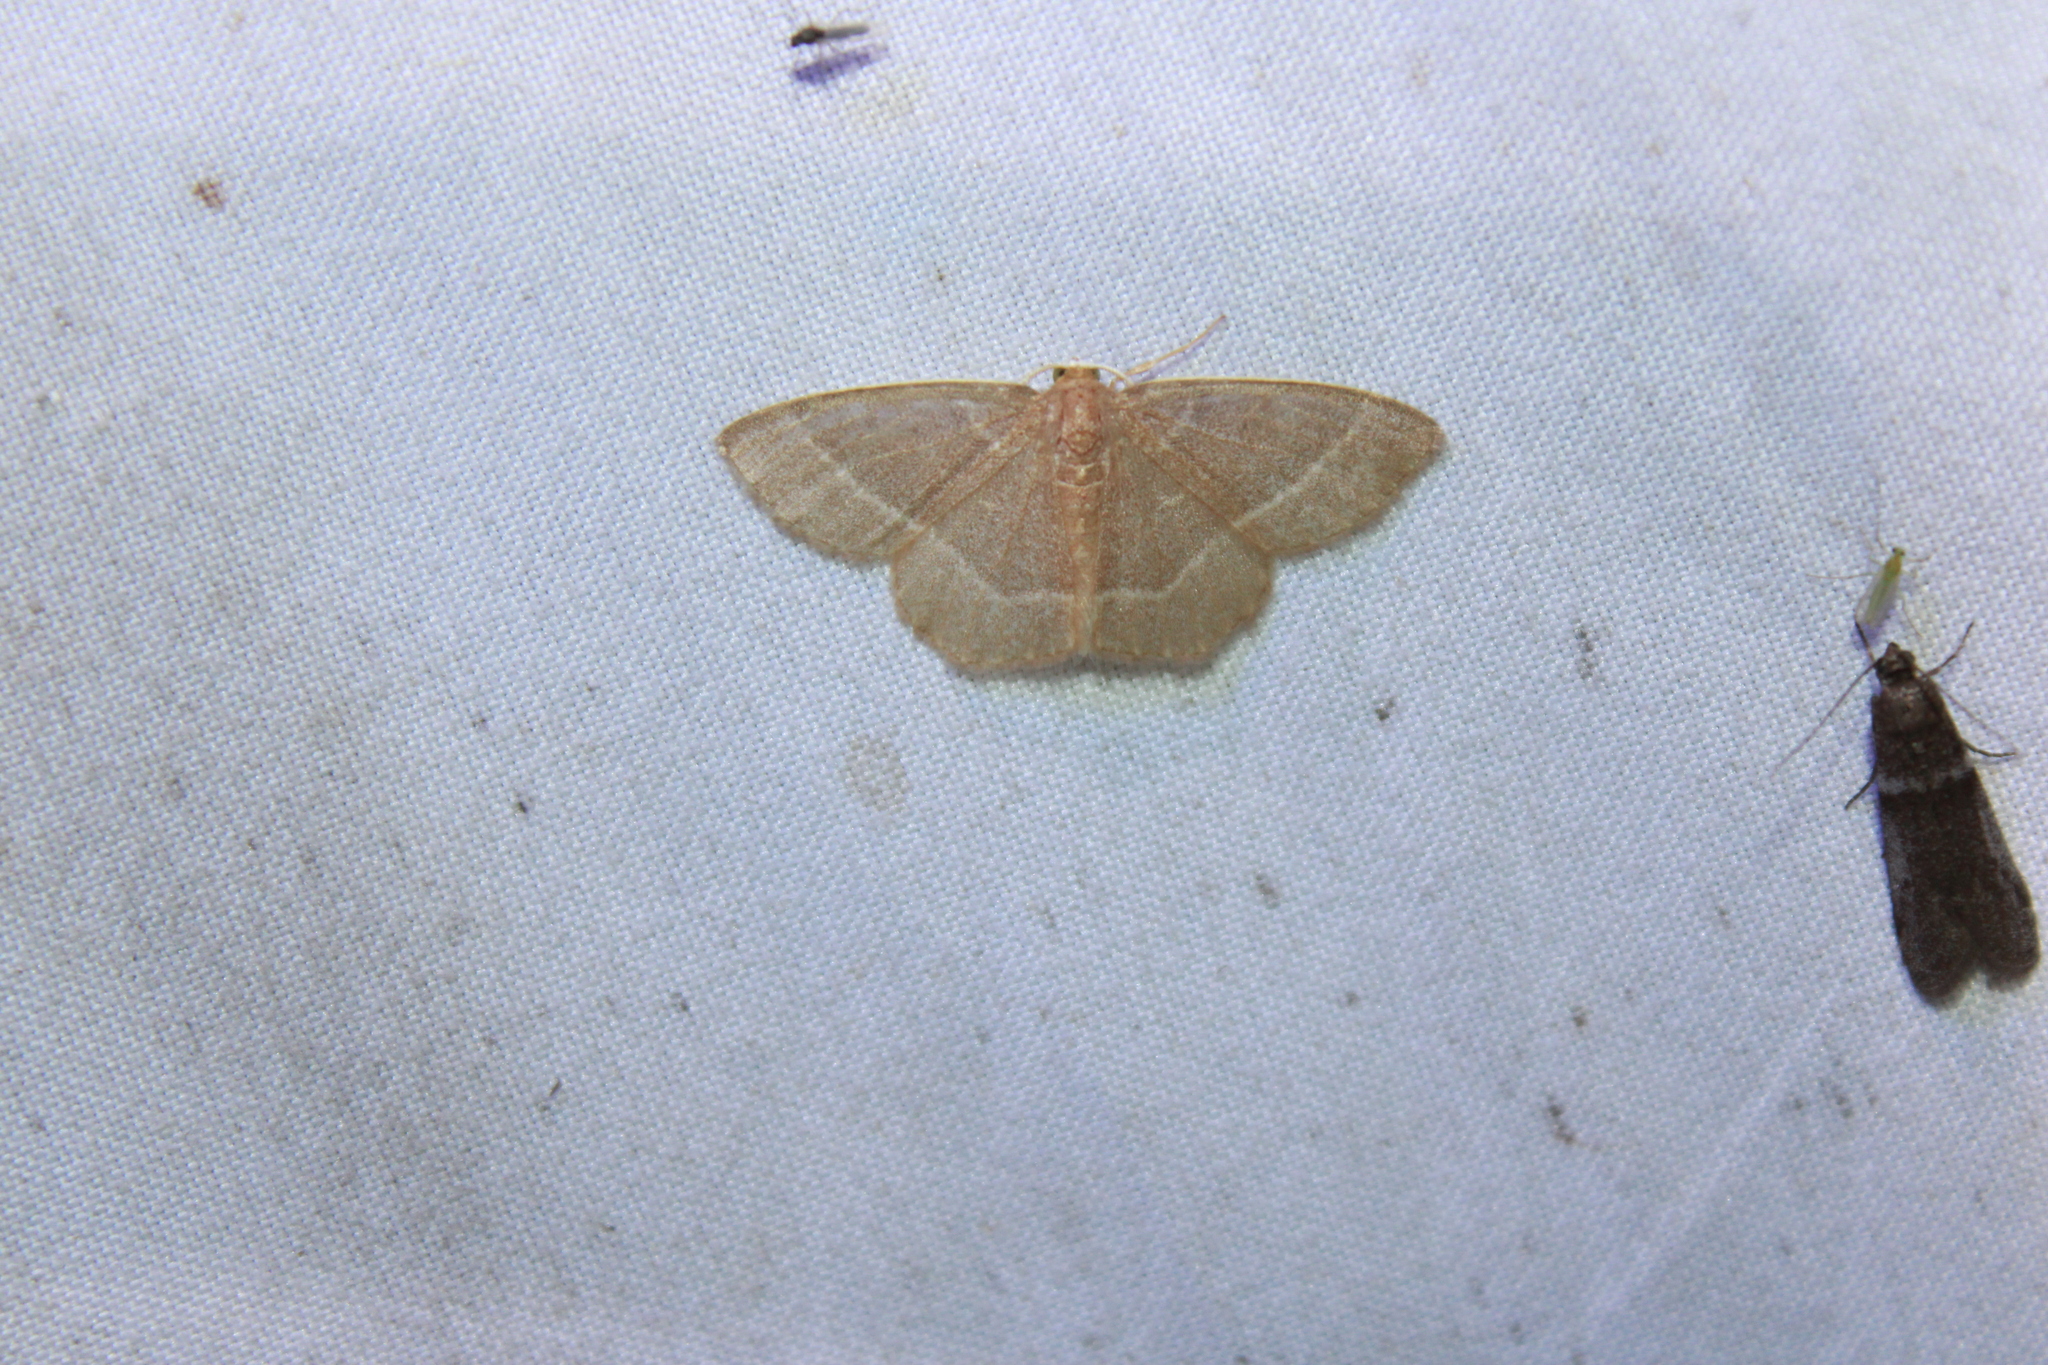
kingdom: Animalia
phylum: Arthropoda
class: Insecta
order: Lepidoptera
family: Geometridae
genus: Nemoria
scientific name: Nemoria bistriaria
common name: Red-fringed emerald
